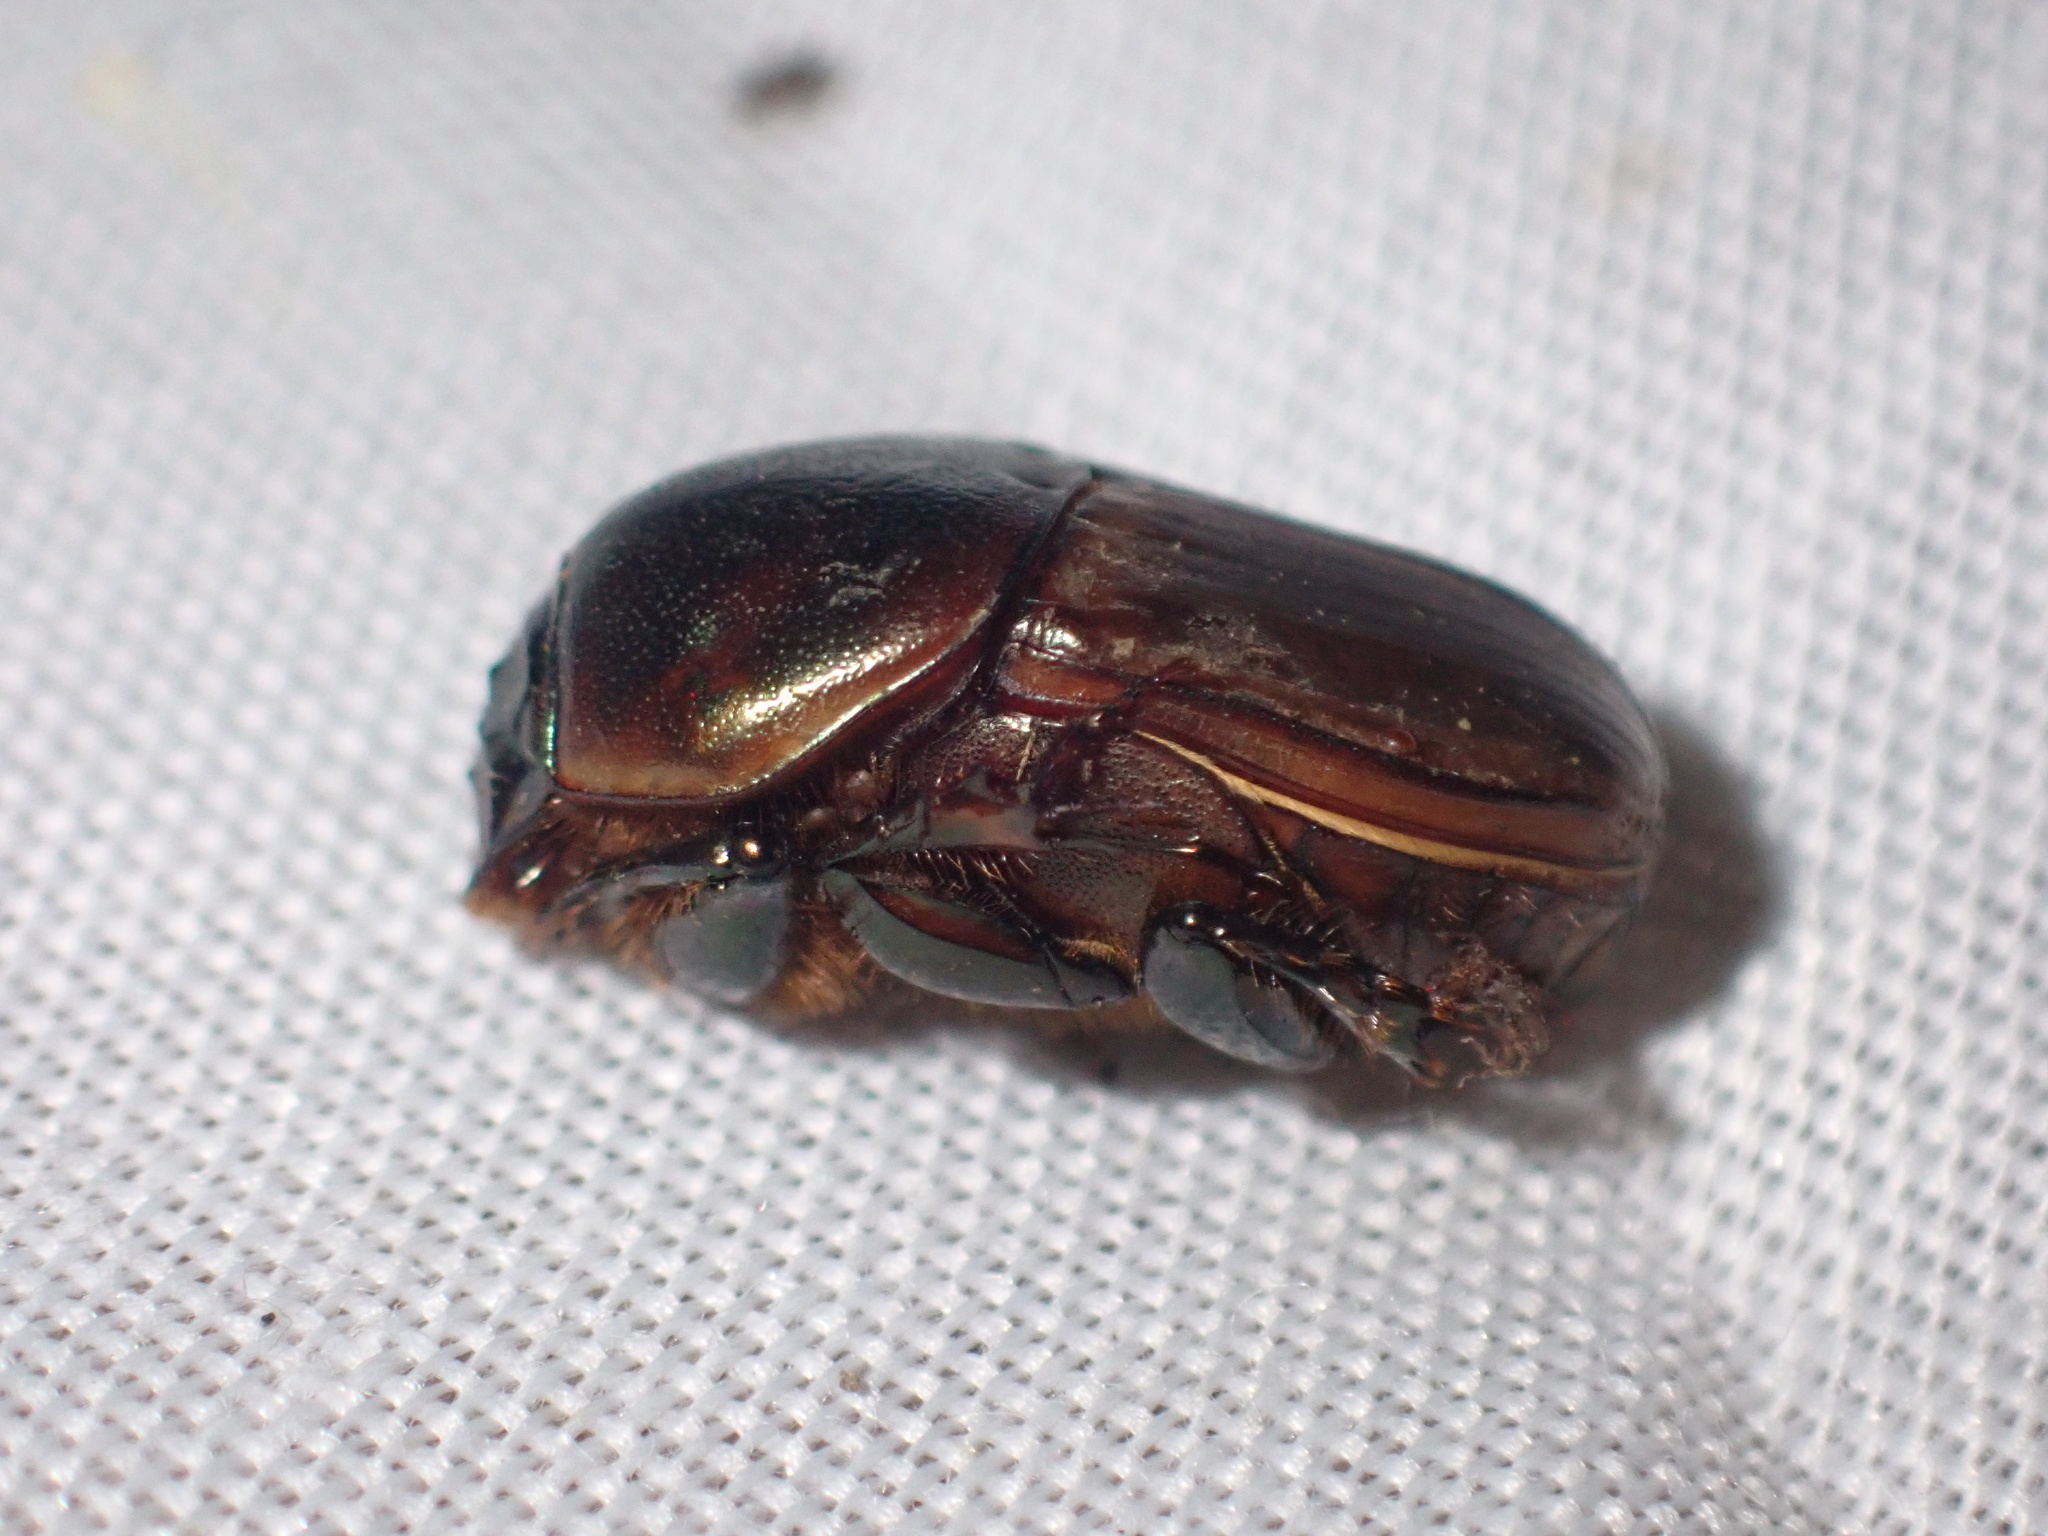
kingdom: Animalia
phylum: Arthropoda
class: Insecta
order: Coleoptera
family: Scarabaeidae
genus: Onitis
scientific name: Onitis alexis
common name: Alexis dung beetle
